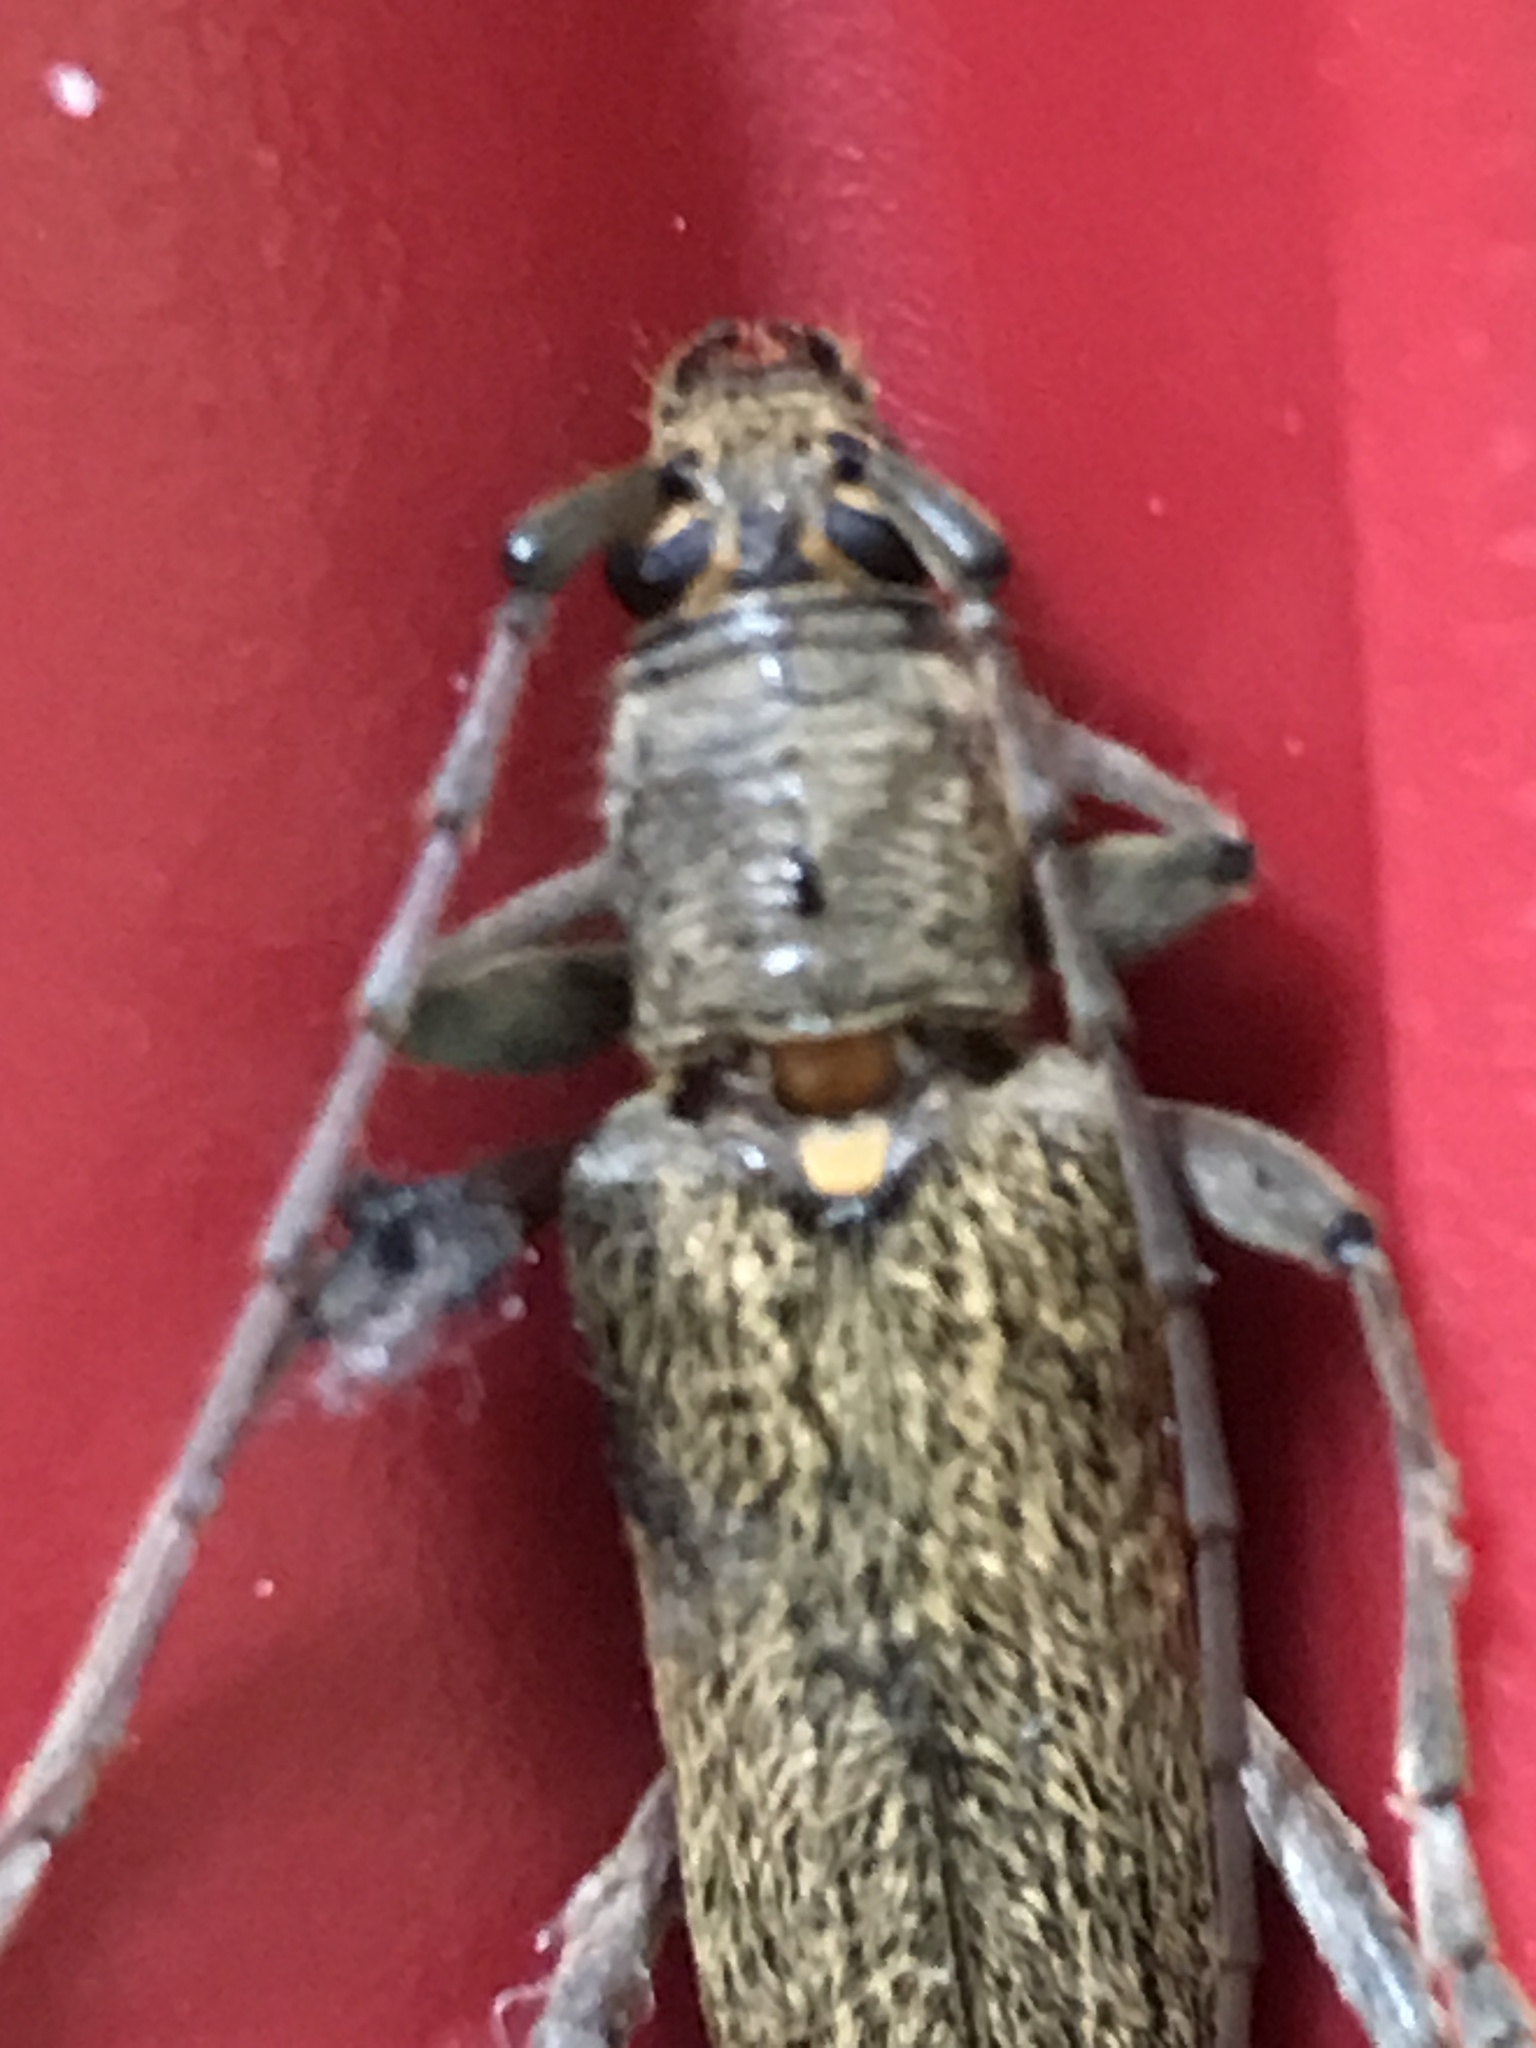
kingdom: Animalia
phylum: Arthropoda
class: Insecta
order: Coleoptera
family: Cerambycidae
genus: Oemona
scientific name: Oemona hirta
